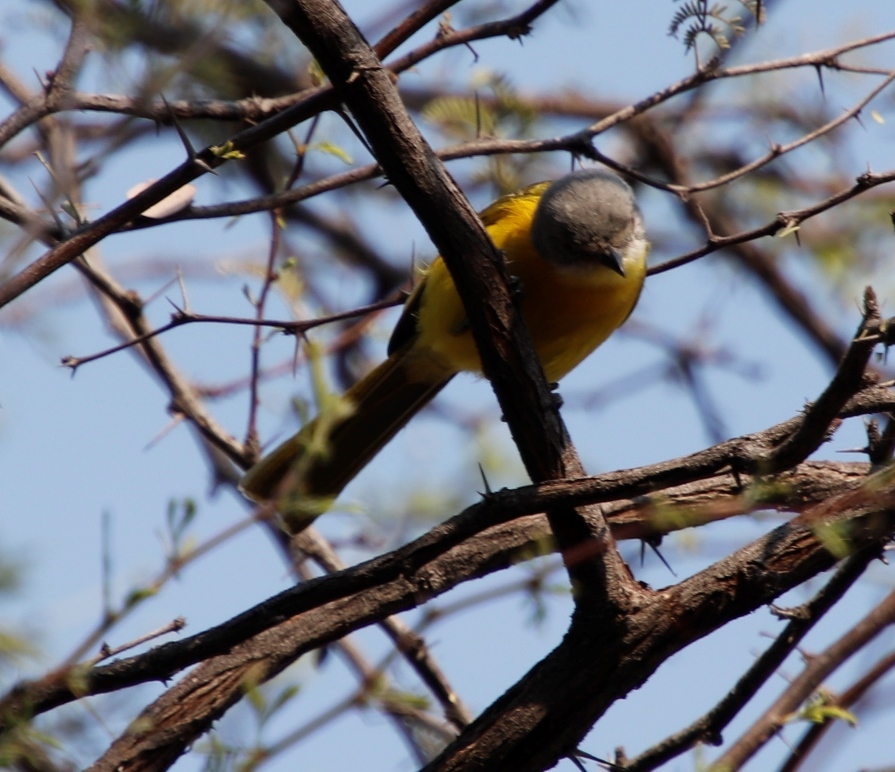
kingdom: Animalia
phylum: Chordata
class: Aves
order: Passeriformes
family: Malaconotidae
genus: Chlorophoneus
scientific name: Chlorophoneus sulfureopectus
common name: Orange-breasted bushshrike
